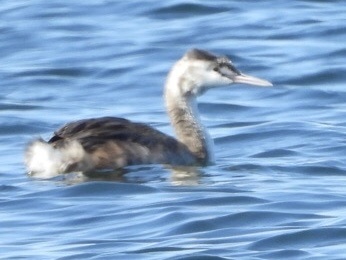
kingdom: Animalia
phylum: Chordata
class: Aves
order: Podicipediformes
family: Podicipedidae
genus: Podiceps
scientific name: Podiceps cristatus
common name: Great crested grebe
